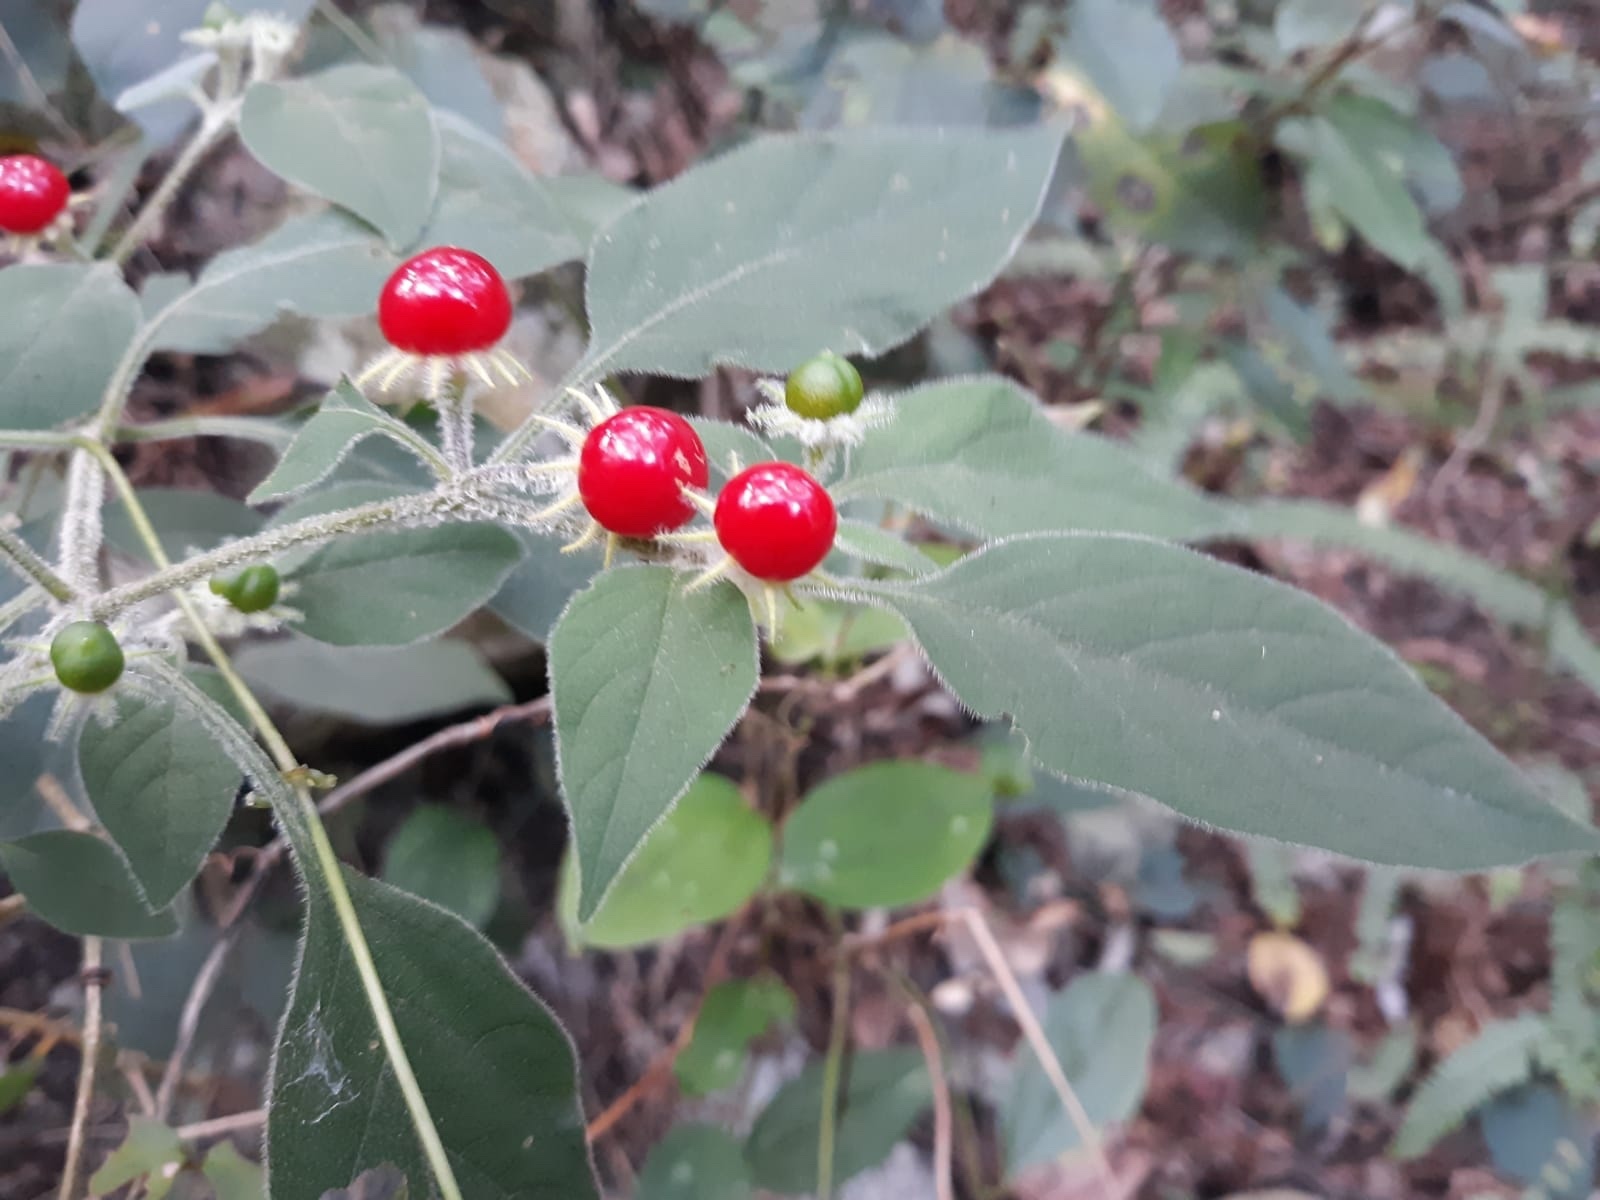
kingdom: Plantae
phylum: Tracheophyta
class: Magnoliopsida
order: Solanales
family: Solanaceae
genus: Lycianthes
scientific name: Lycianthes biflora
